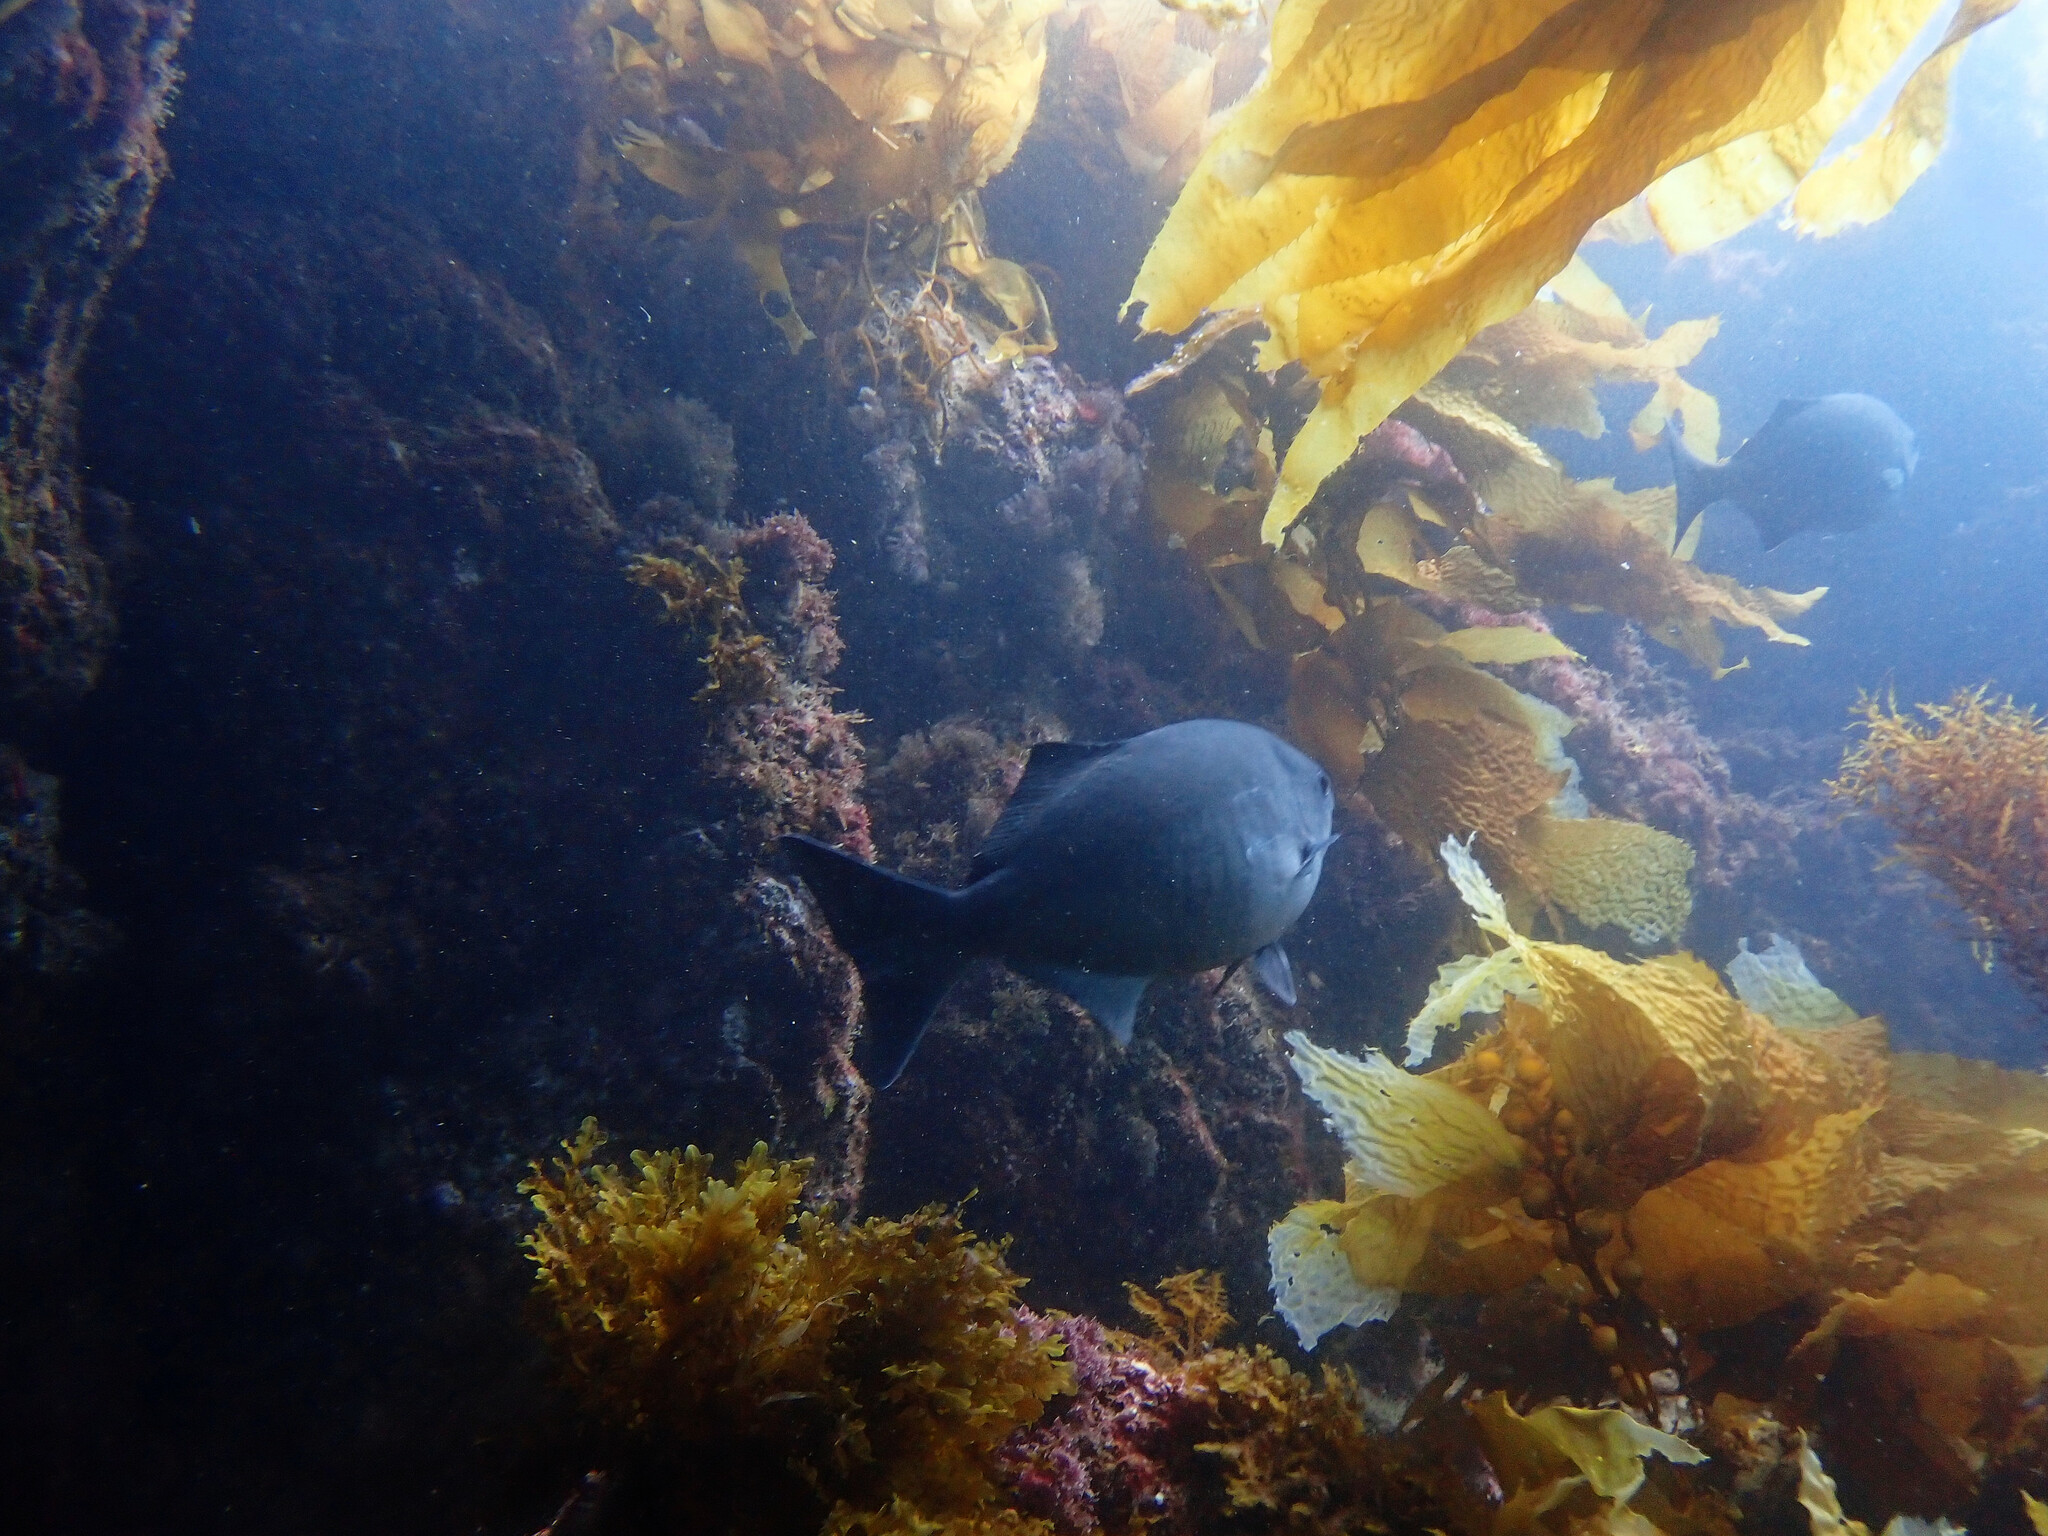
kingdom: Animalia
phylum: Chordata
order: Perciformes
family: Kyphosidae
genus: Medialuna
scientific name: Medialuna californiensis
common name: Halfmoon
